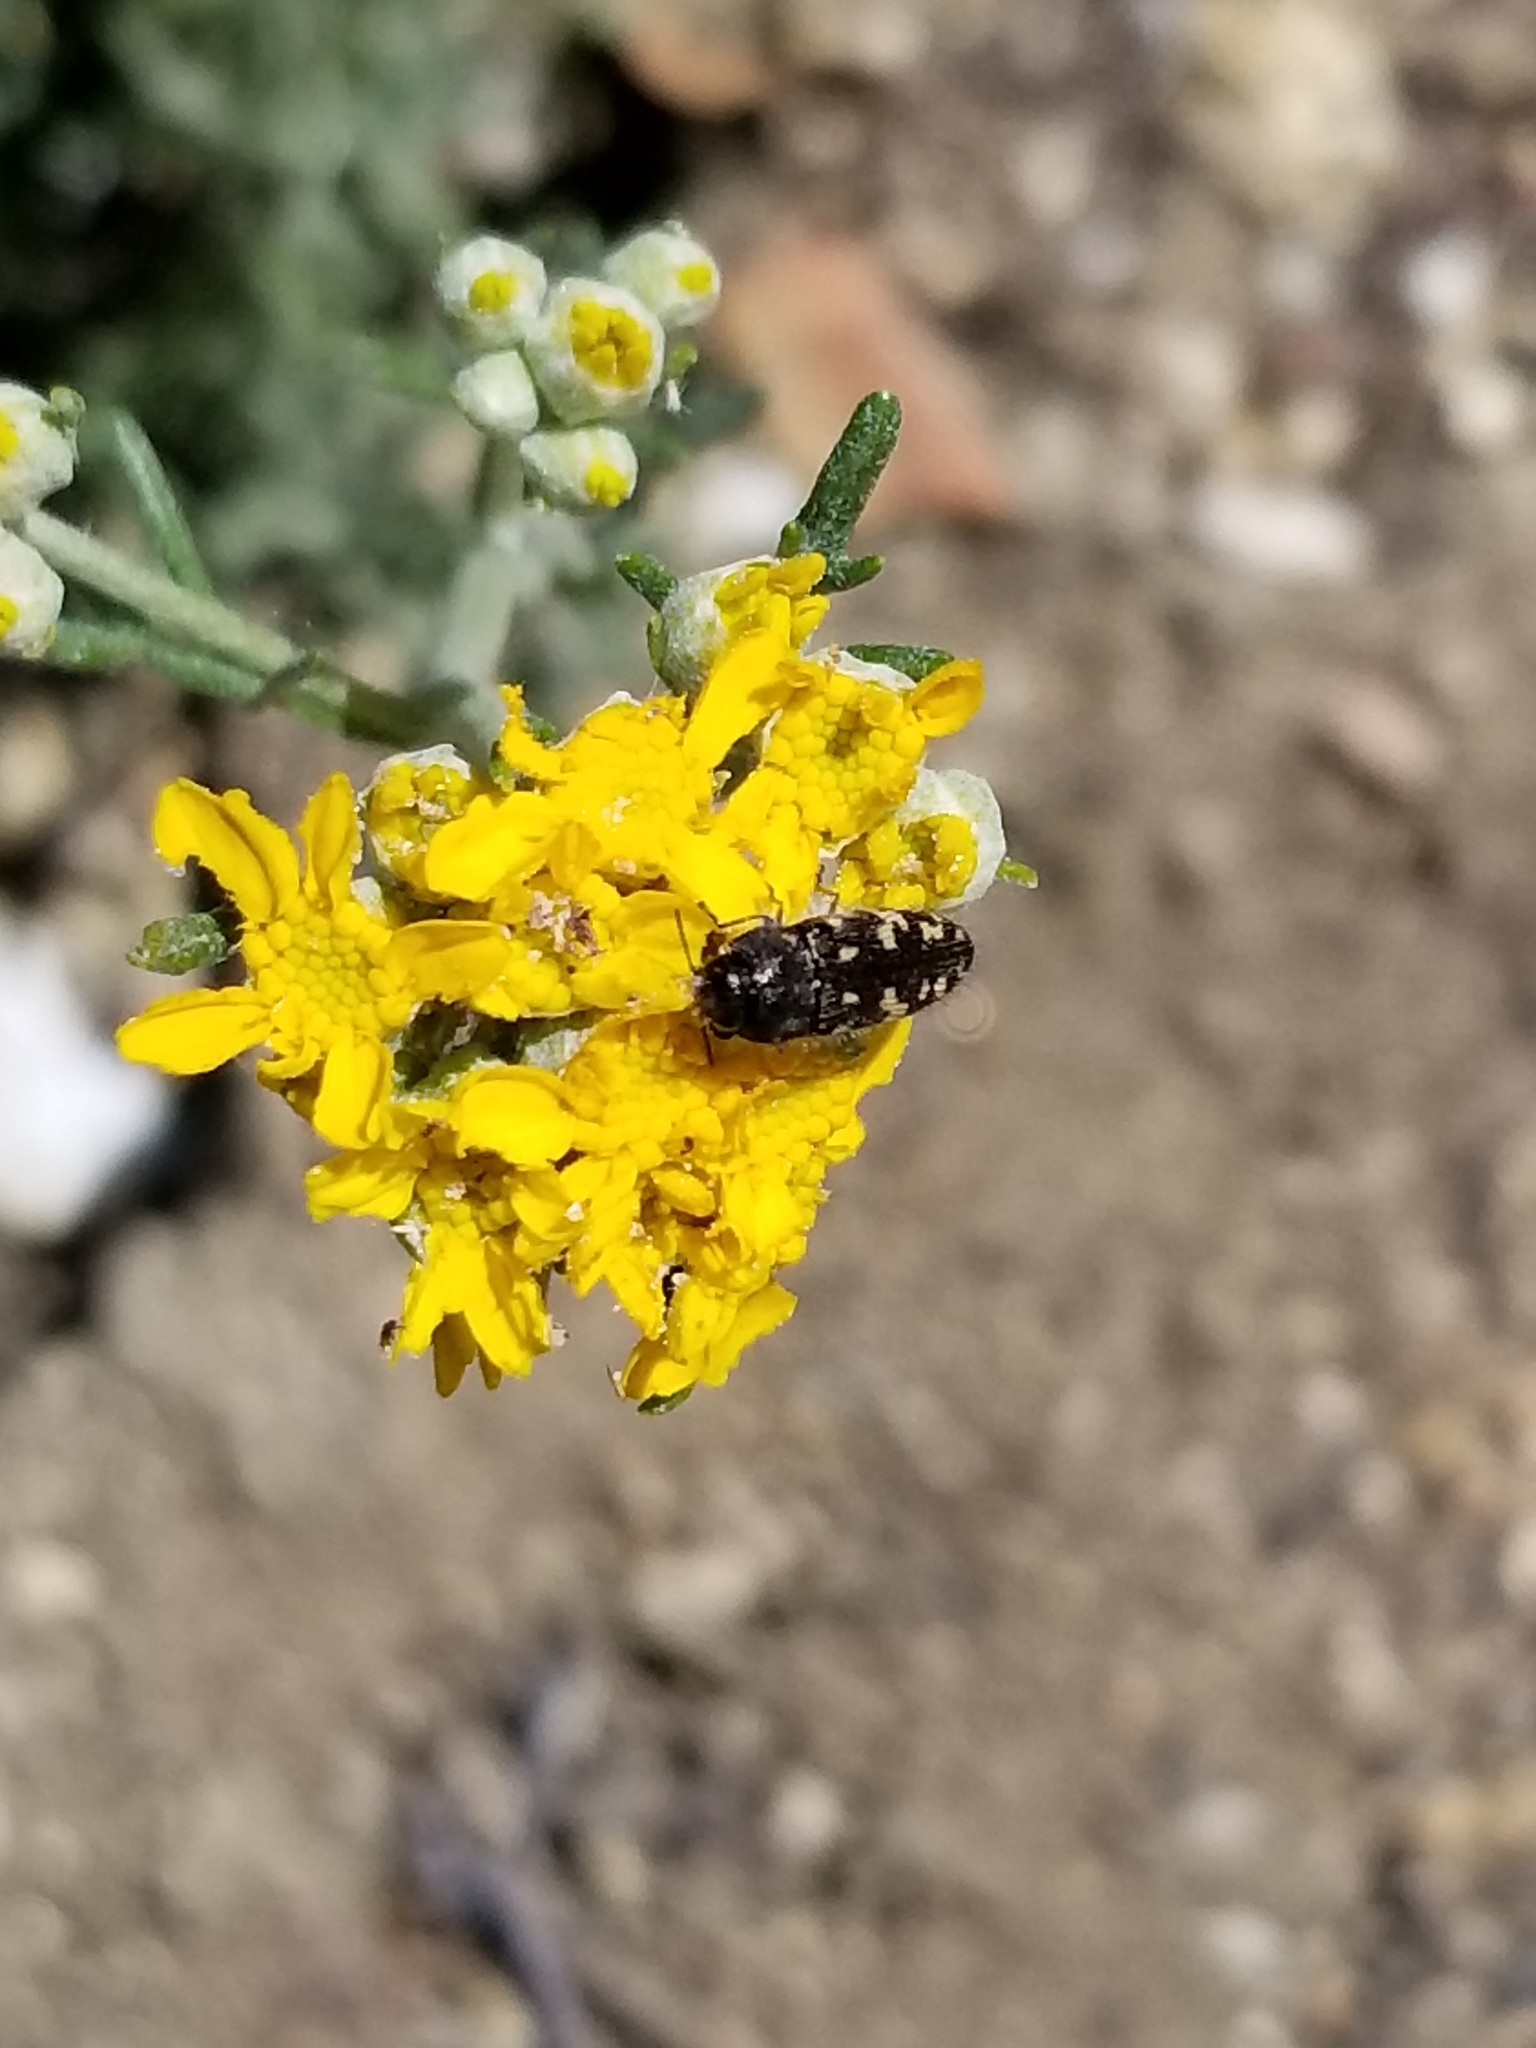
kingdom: Plantae
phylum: Tracheophyta
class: Magnoliopsida
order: Asterales
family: Asteraceae
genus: Eriophyllum
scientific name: Eriophyllum confertiflorum
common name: Golden-yarrow
